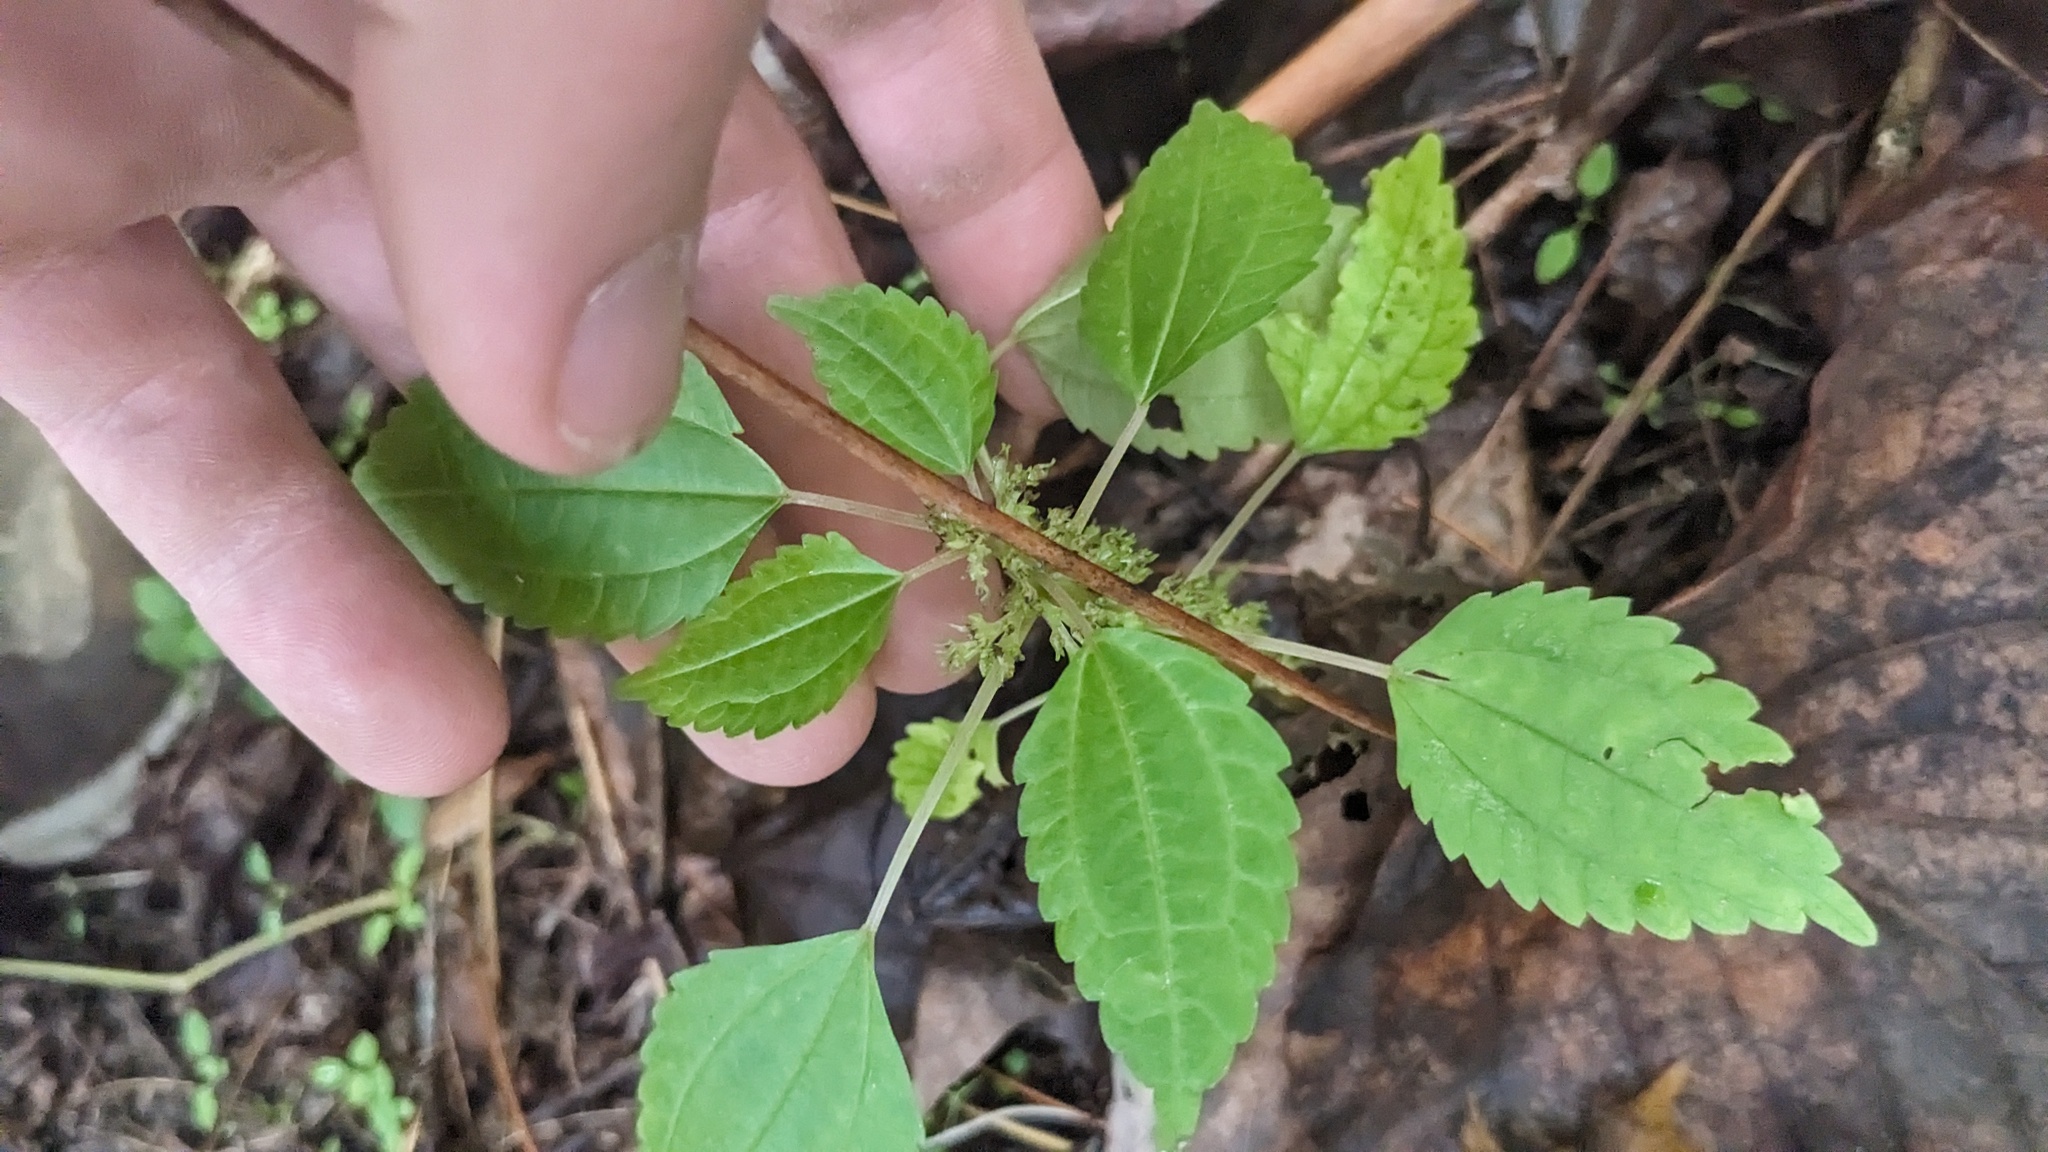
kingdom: Plantae
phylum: Tracheophyta
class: Magnoliopsida
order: Rosales
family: Urticaceae
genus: Pilea
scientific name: Pilea pumila
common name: Clearweed
